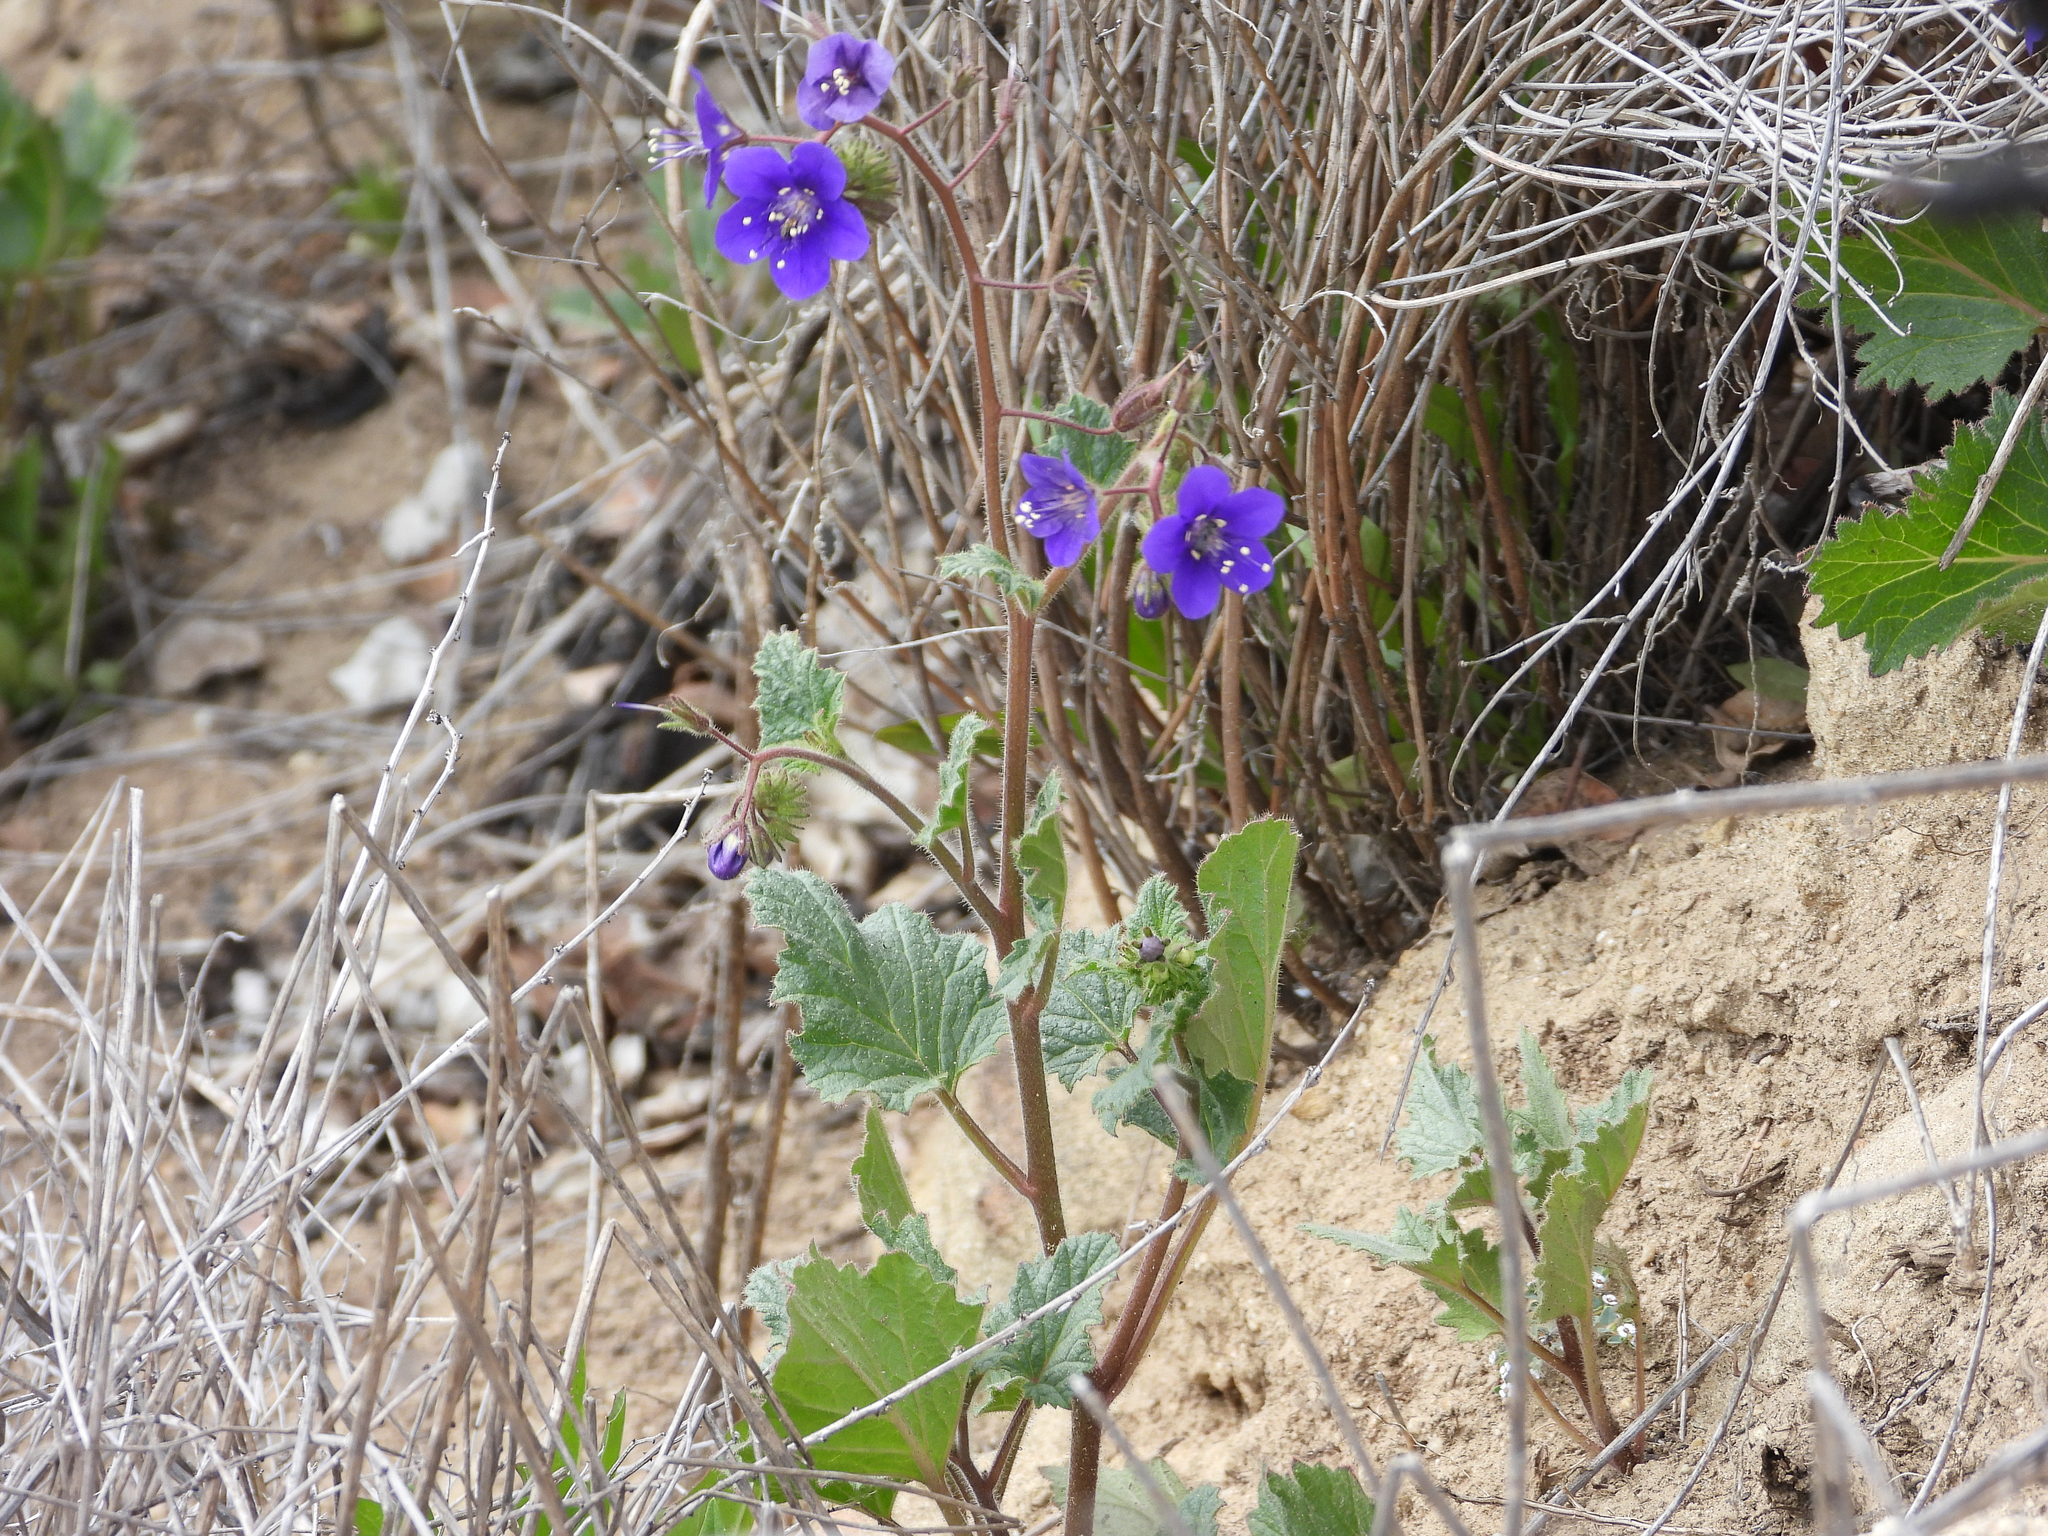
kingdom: Plantae
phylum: Tracheophyta
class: Magnoliopsida
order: Boraginales
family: Hydrophyllaceae
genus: Phacelia
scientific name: Phacelia parryi
